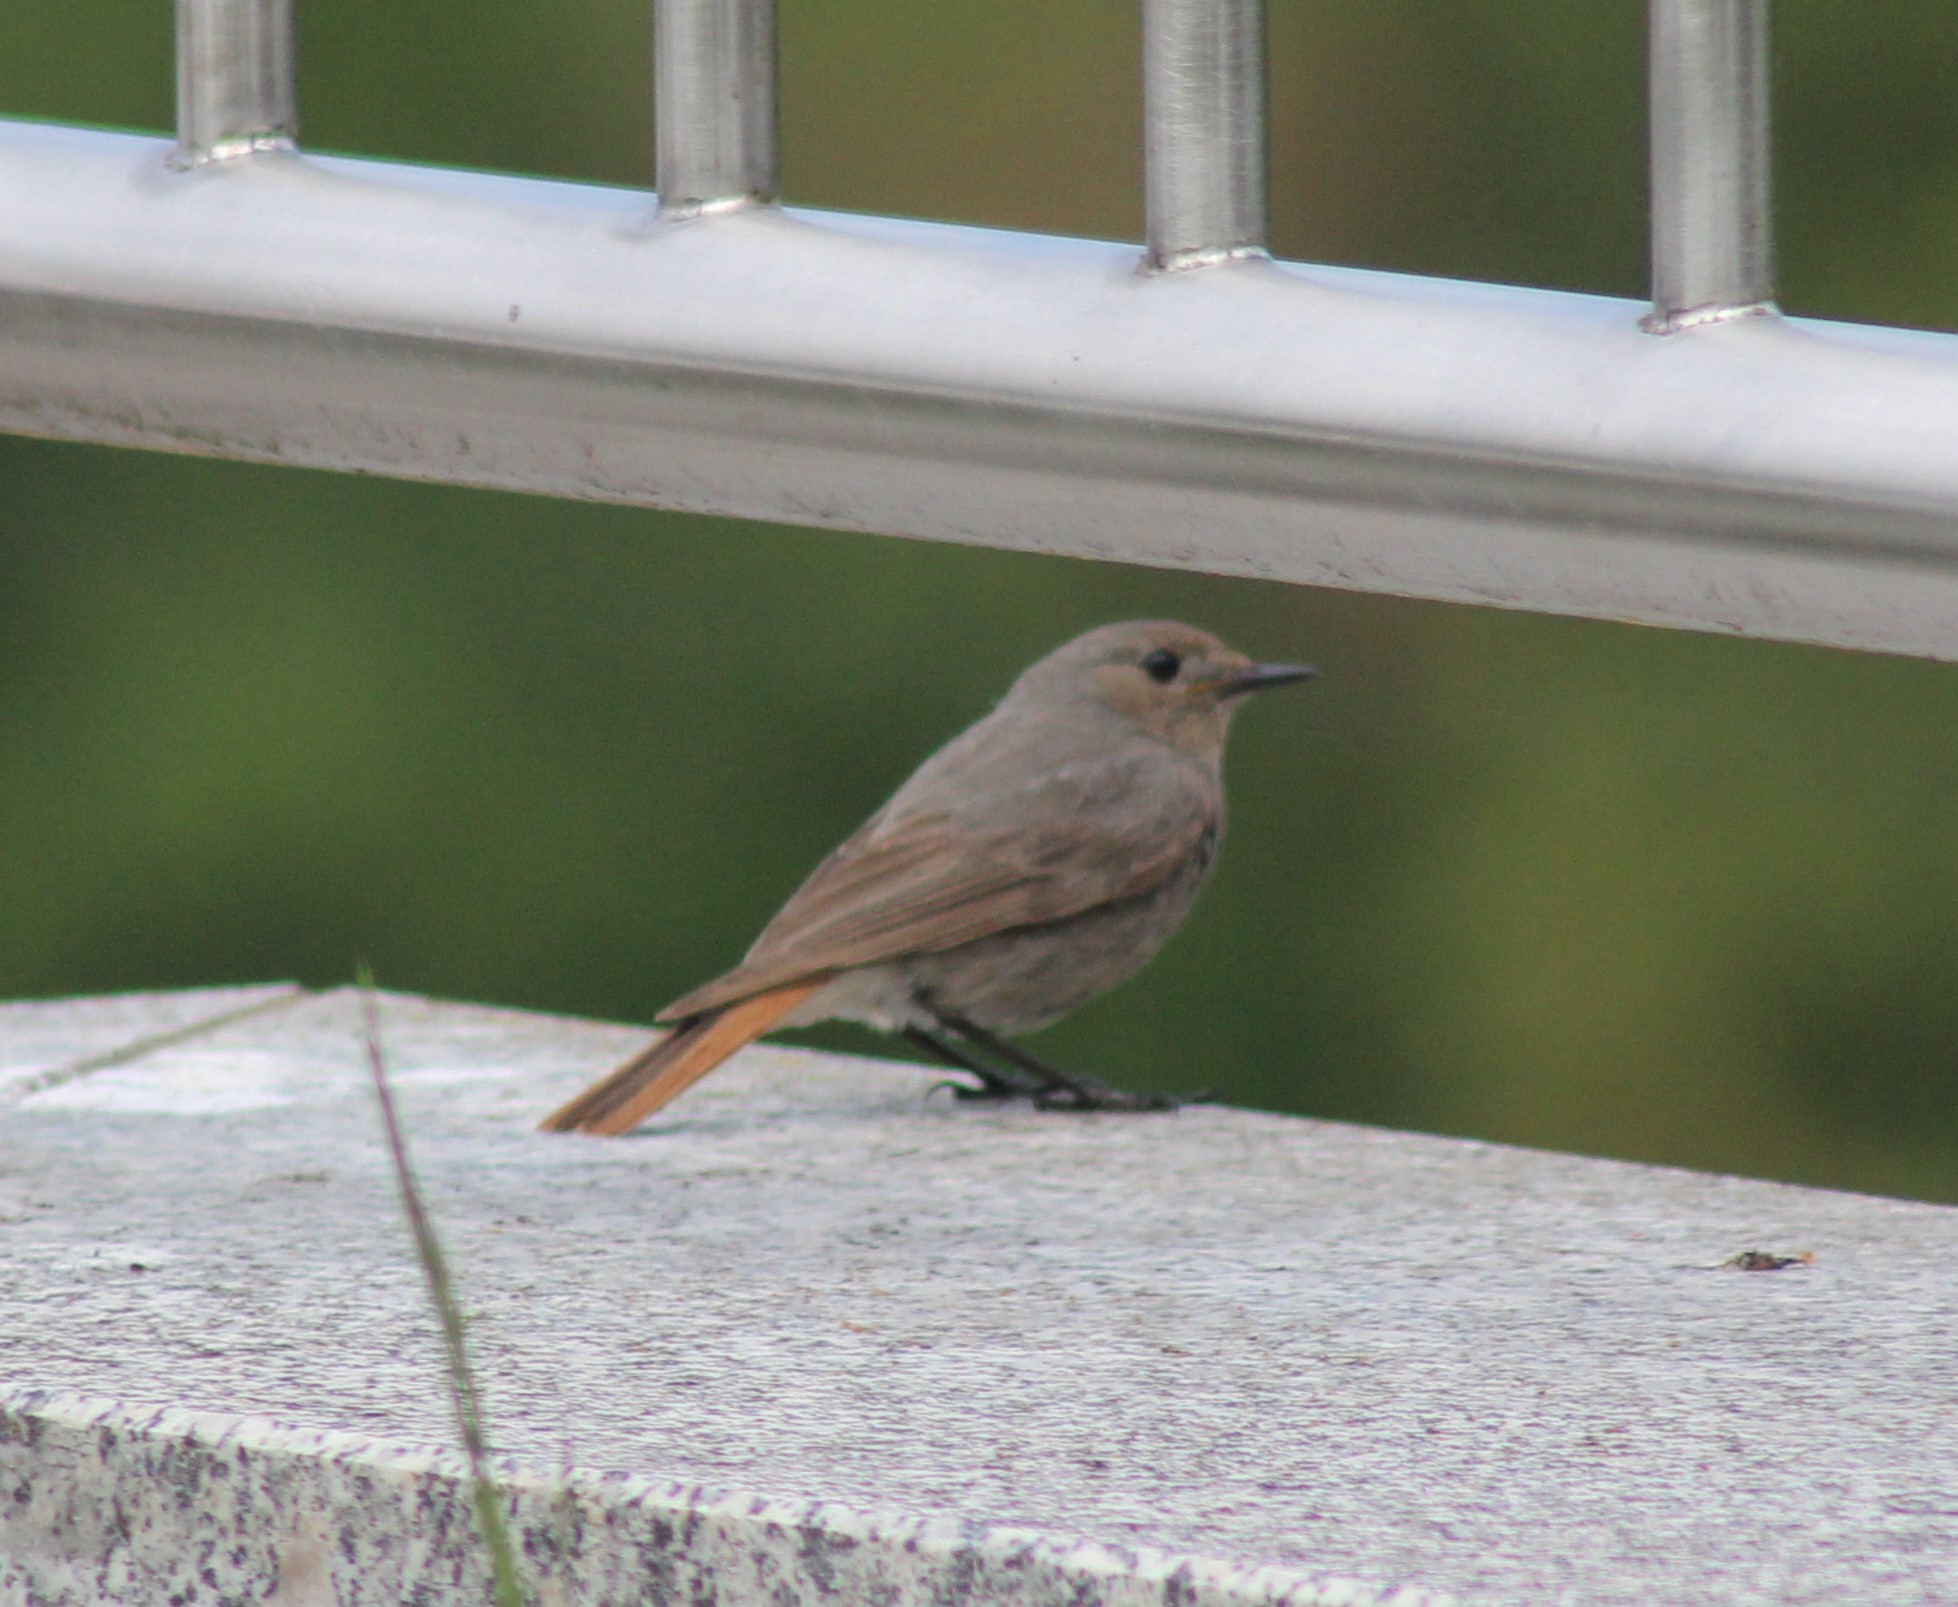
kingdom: Animalia
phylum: Chordata
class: Aves
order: Passeriformes
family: Muscicapidae
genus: Phoenicurus
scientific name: Phoenicurus ochruros
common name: Black redstart
